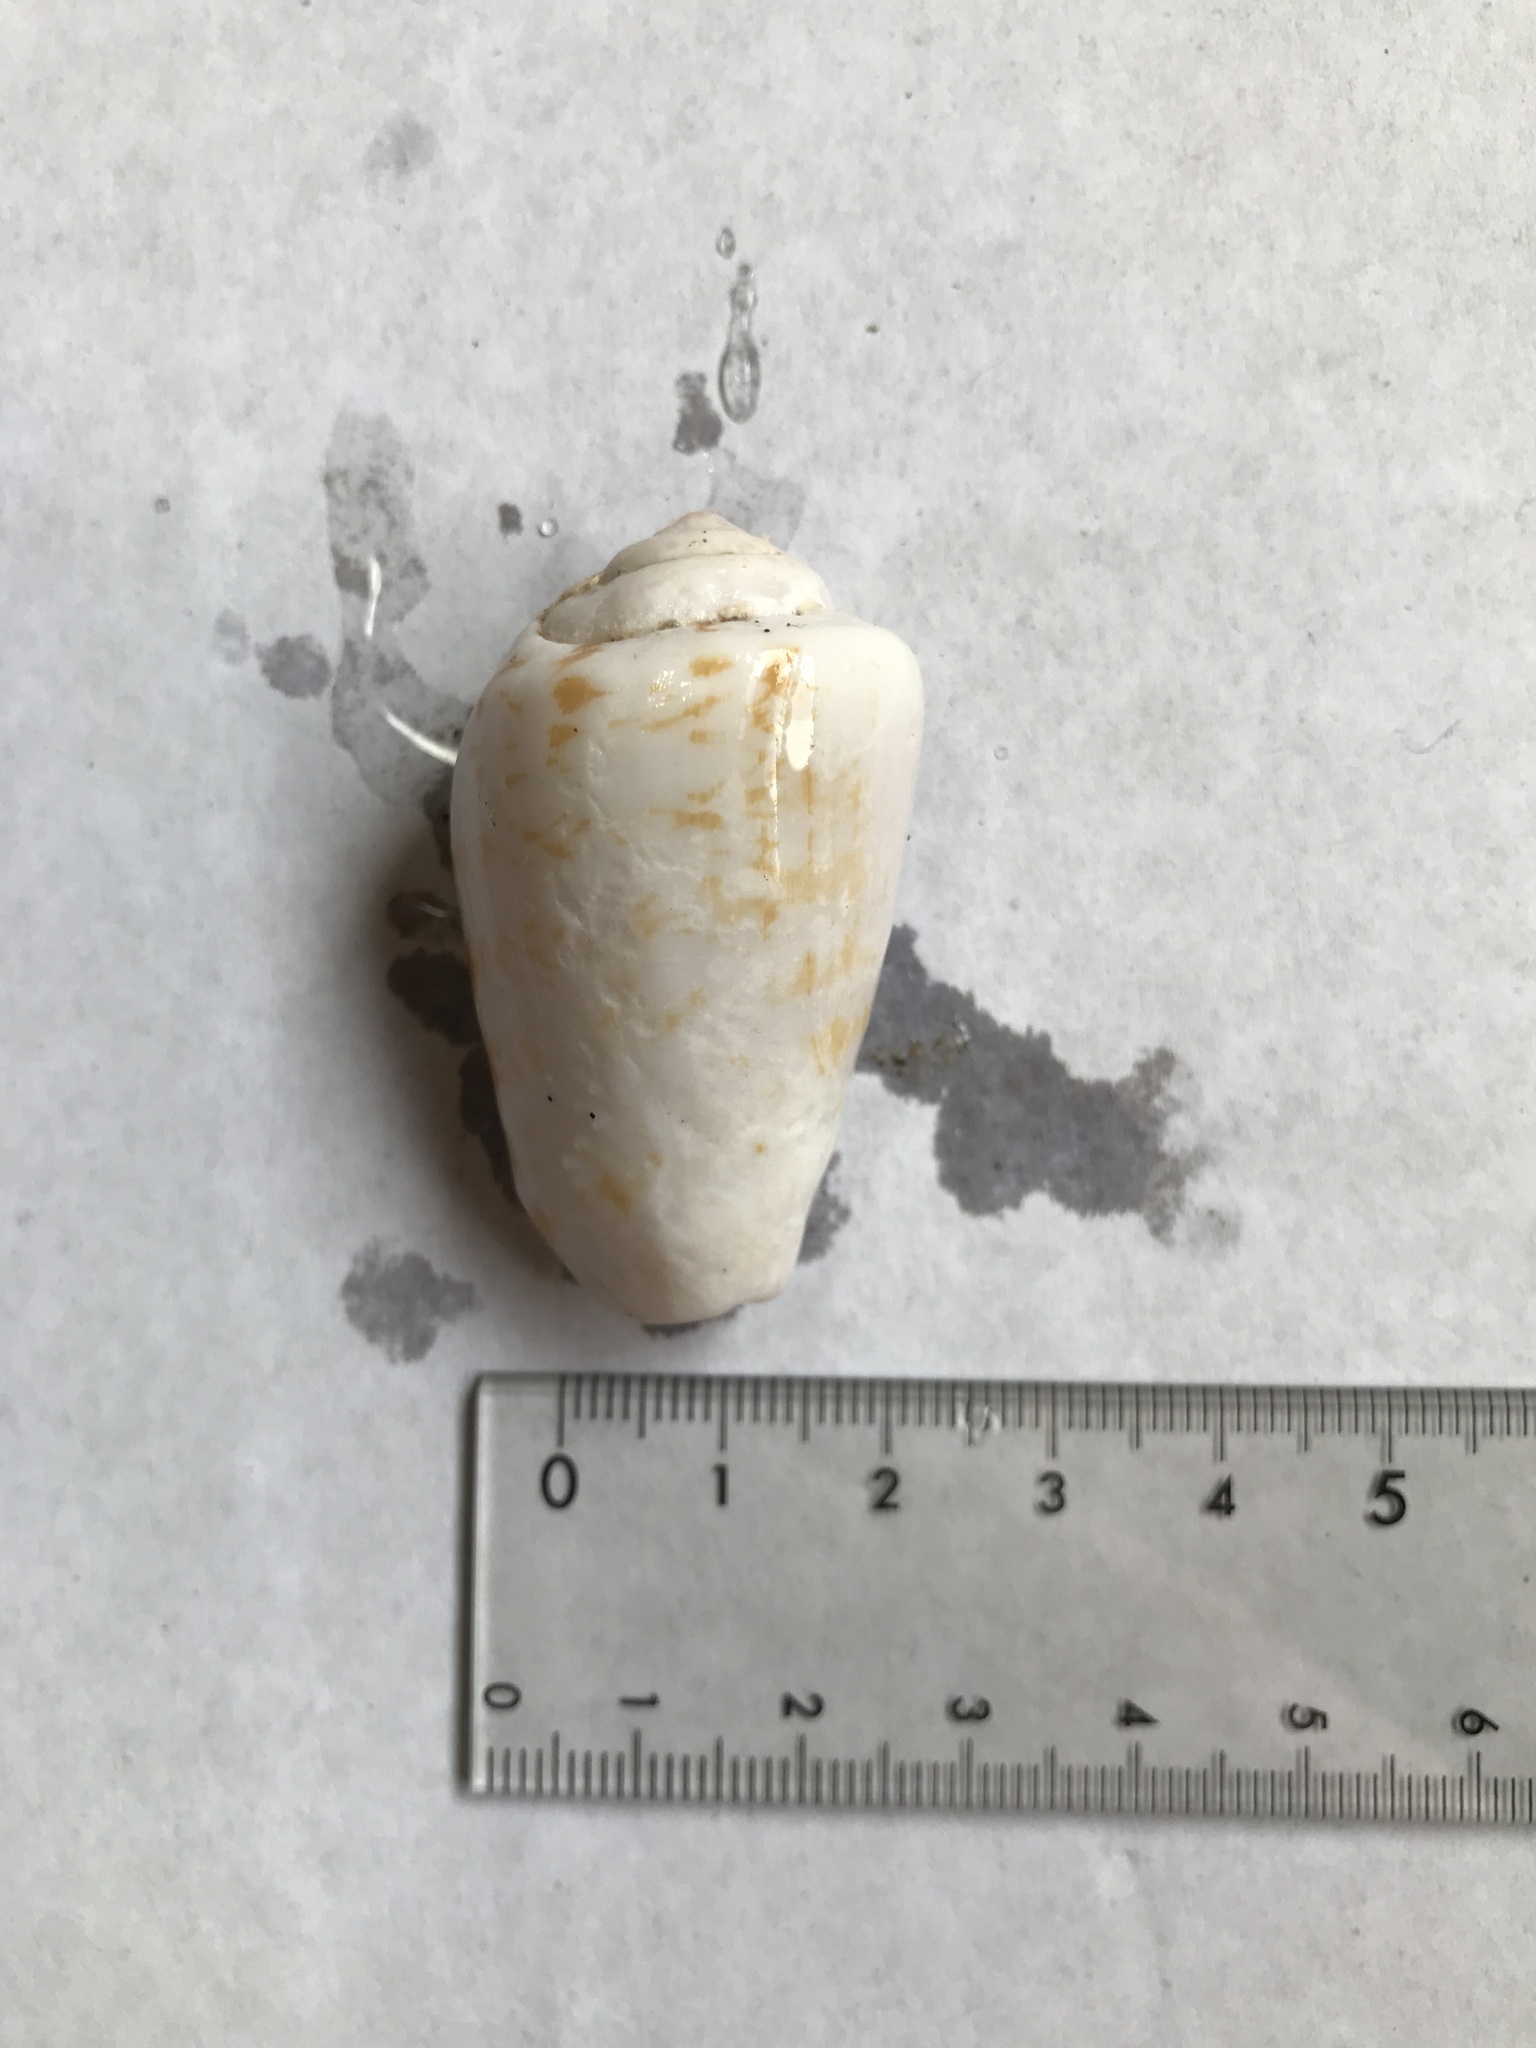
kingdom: Animalia
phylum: Mollusca
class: Gastropoda
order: Littorinimorpha
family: Strombidae
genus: Conomurex
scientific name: Conomurex luhuanus
